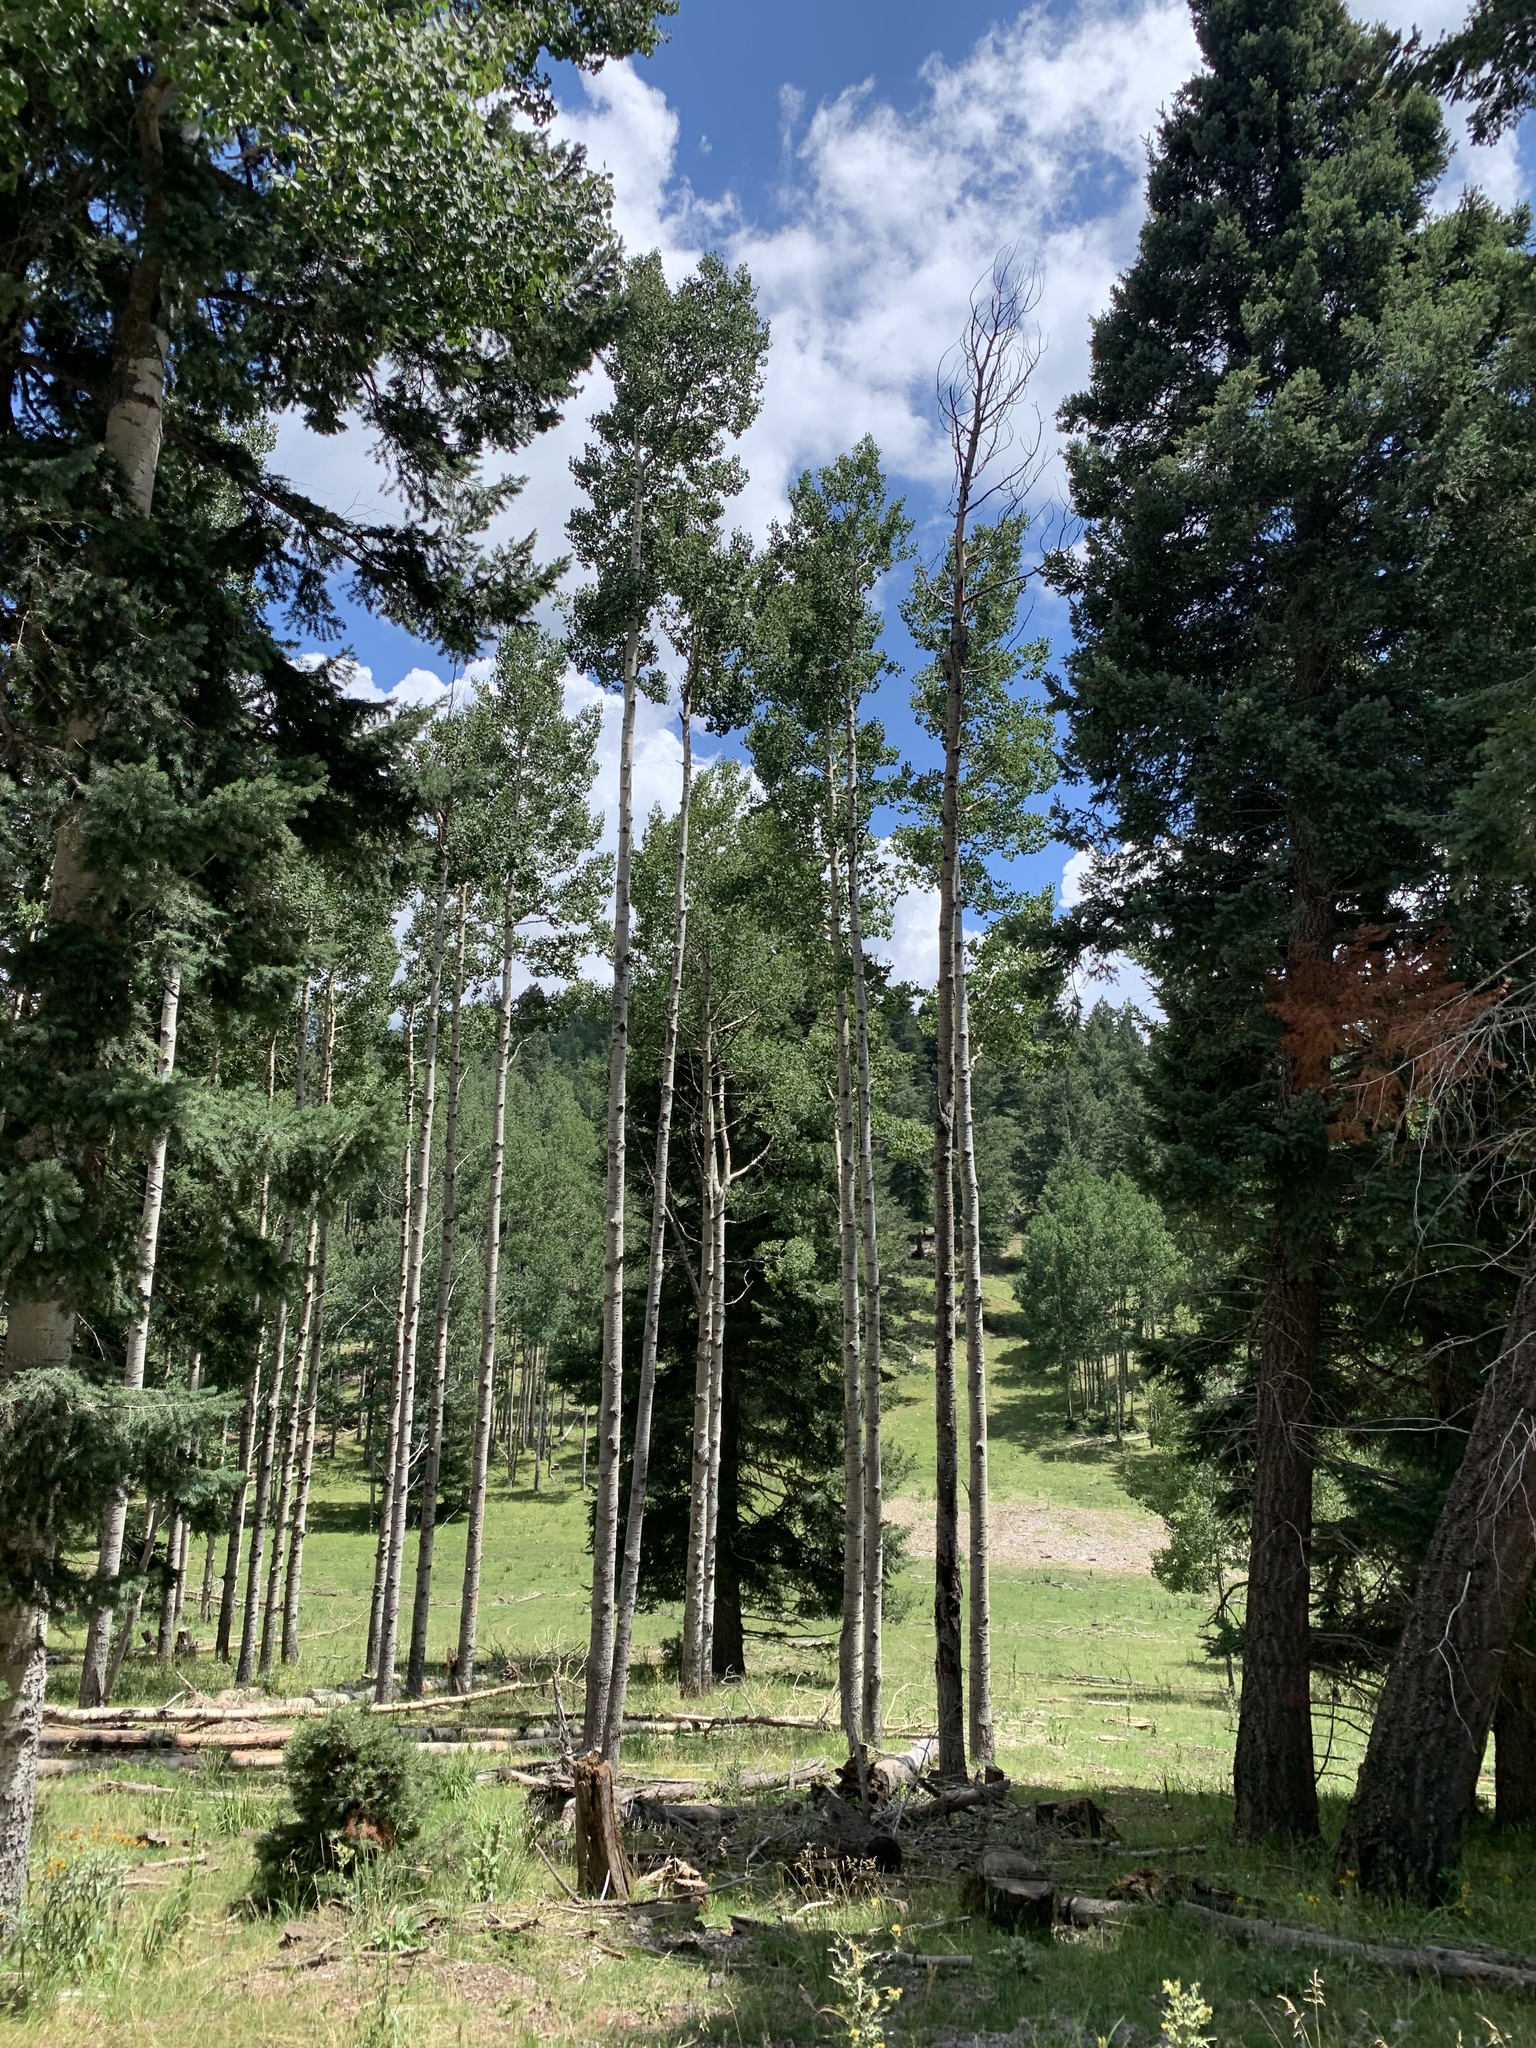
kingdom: Plantae
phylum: Tracheophyta
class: Magnoliopsida
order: Malpighiales
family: Salicaceae
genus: Populus
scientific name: Populus tremuloides
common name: Quaking aspen
